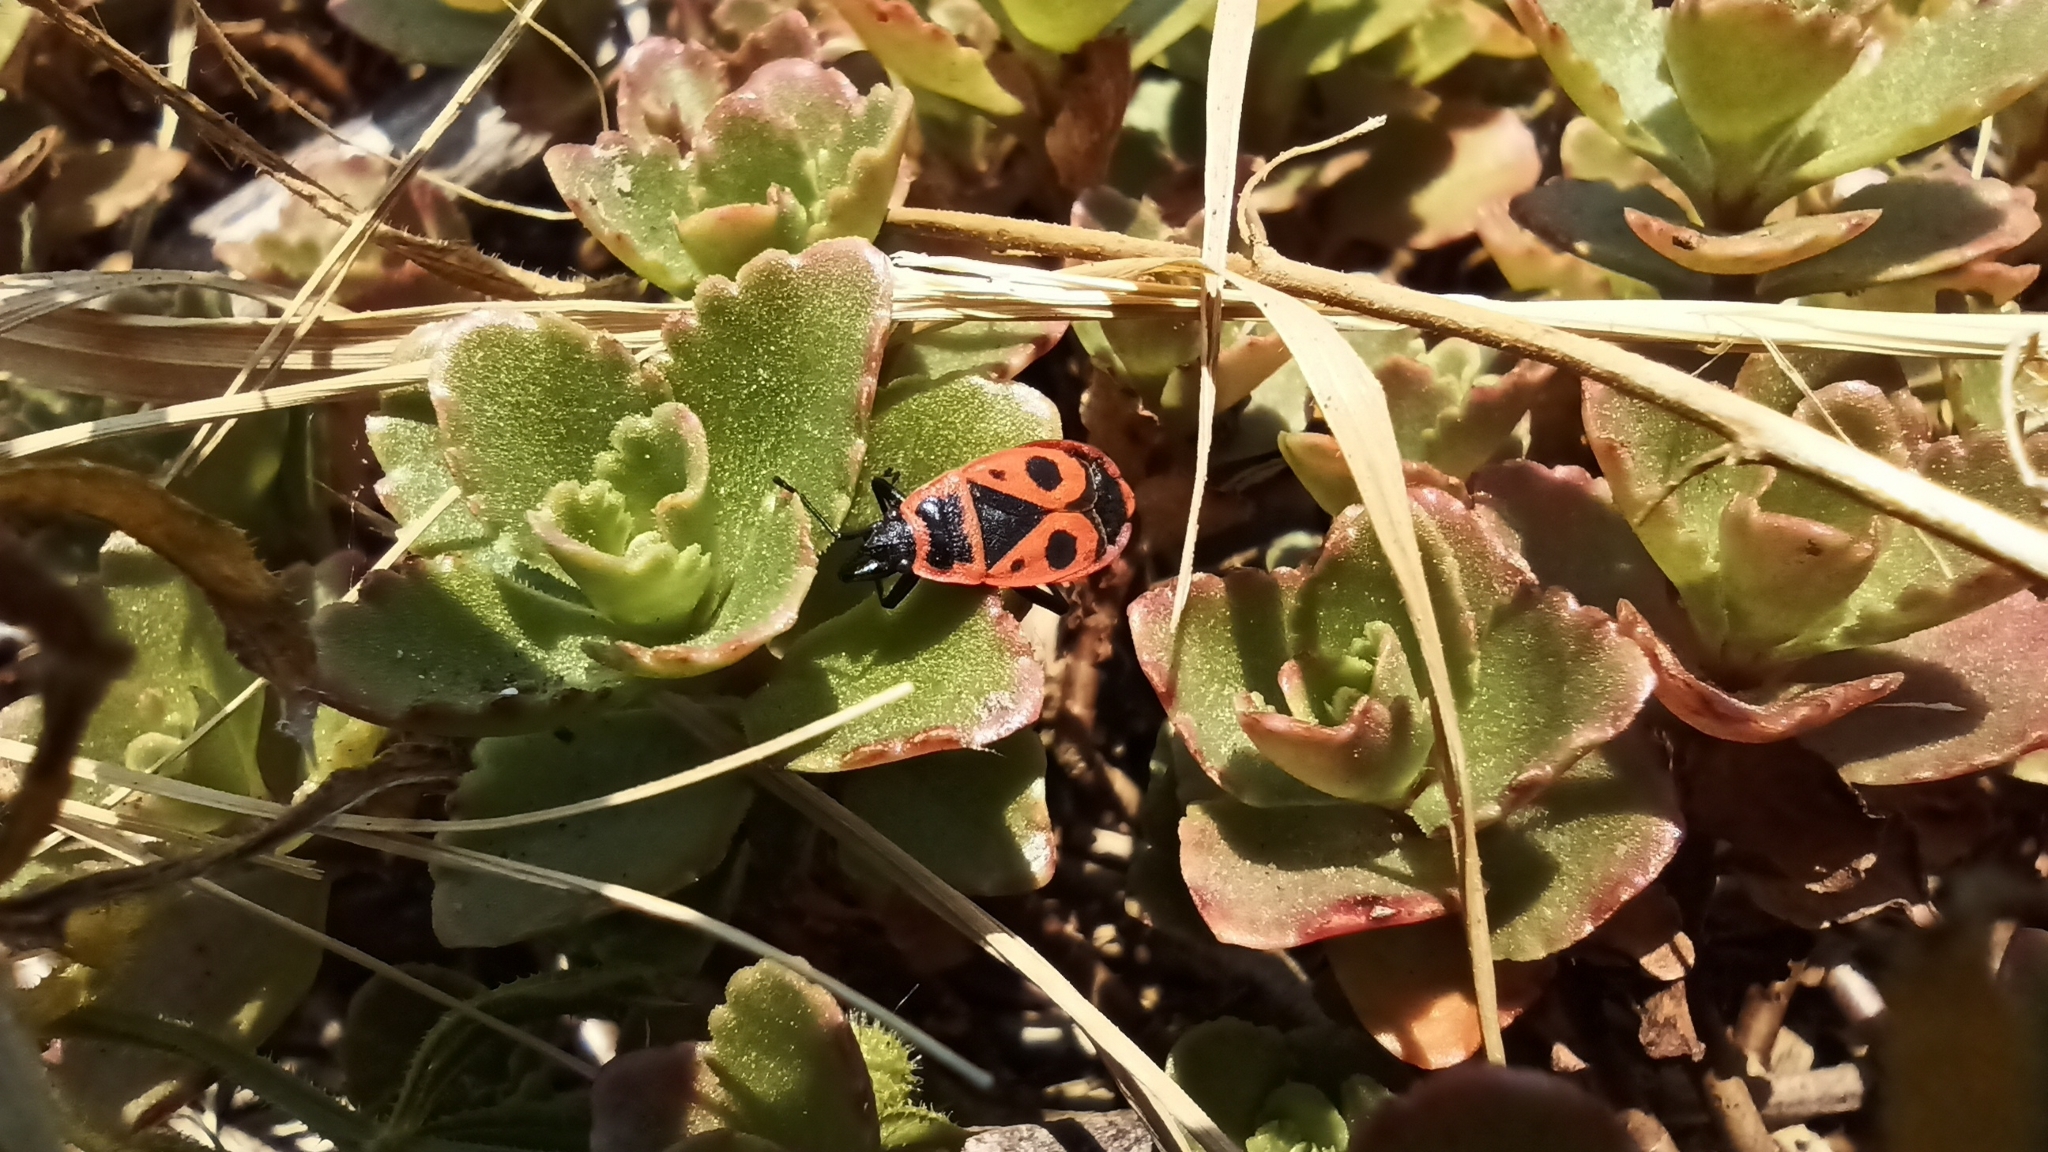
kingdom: Animalia
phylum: Arthropoda
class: Insecta
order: Hemiptera
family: Pyrrhocoridae
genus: Pyrrhocoris
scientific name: Pyrrhocoris apterus
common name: Firebug
